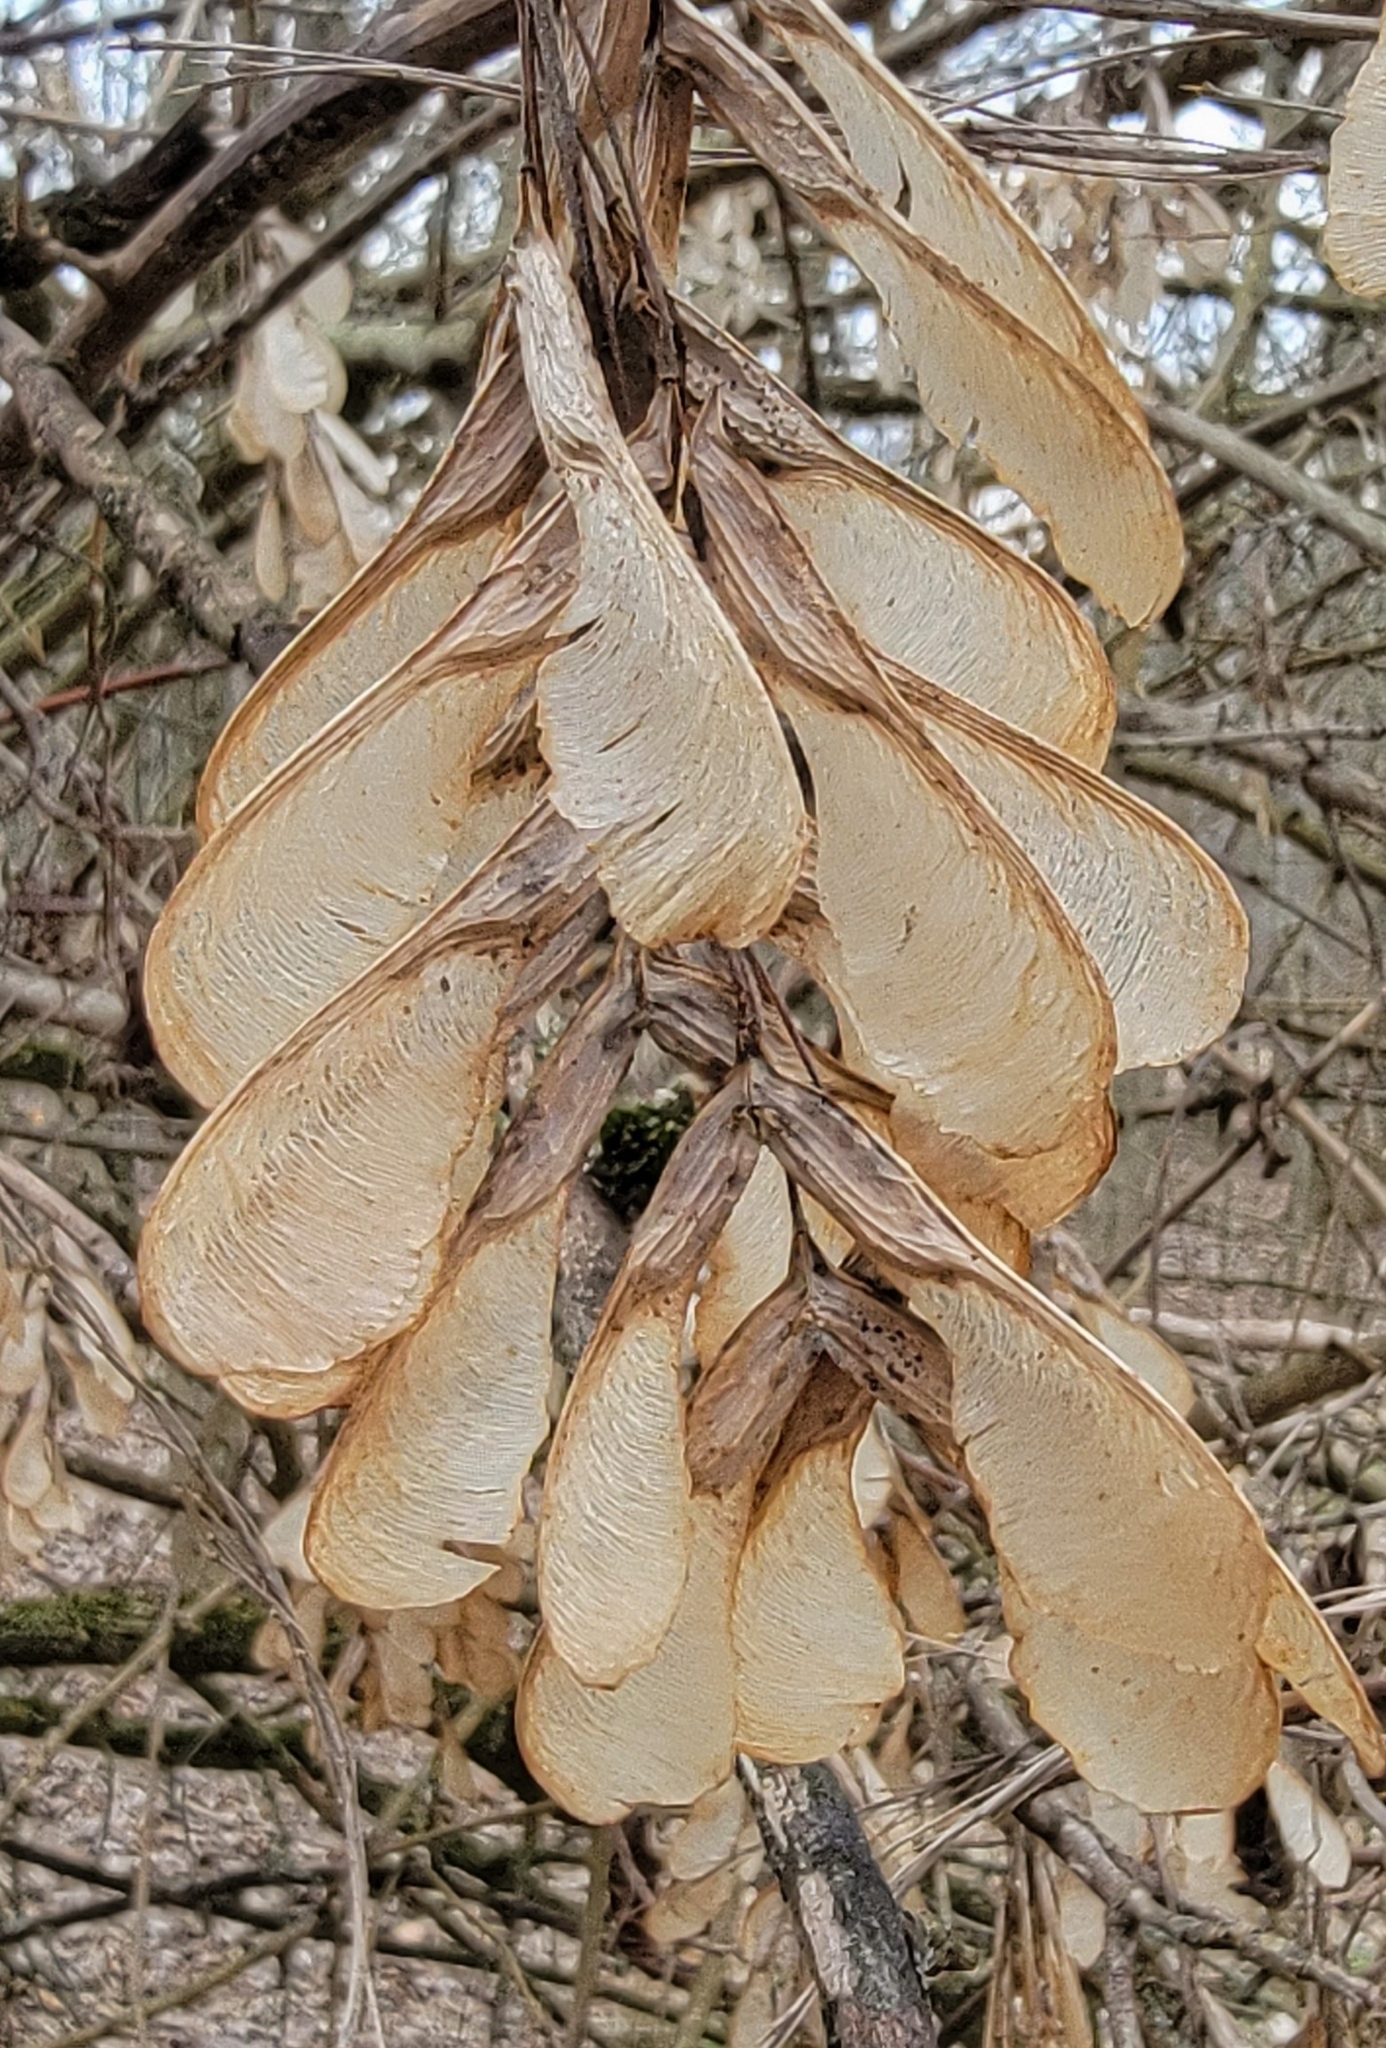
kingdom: Plantae
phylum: Tracheophyta
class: Magnoliopsida
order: Sapindales
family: Sapindaceae
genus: Acer
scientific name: Acer negundo
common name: Ashleaf maple
